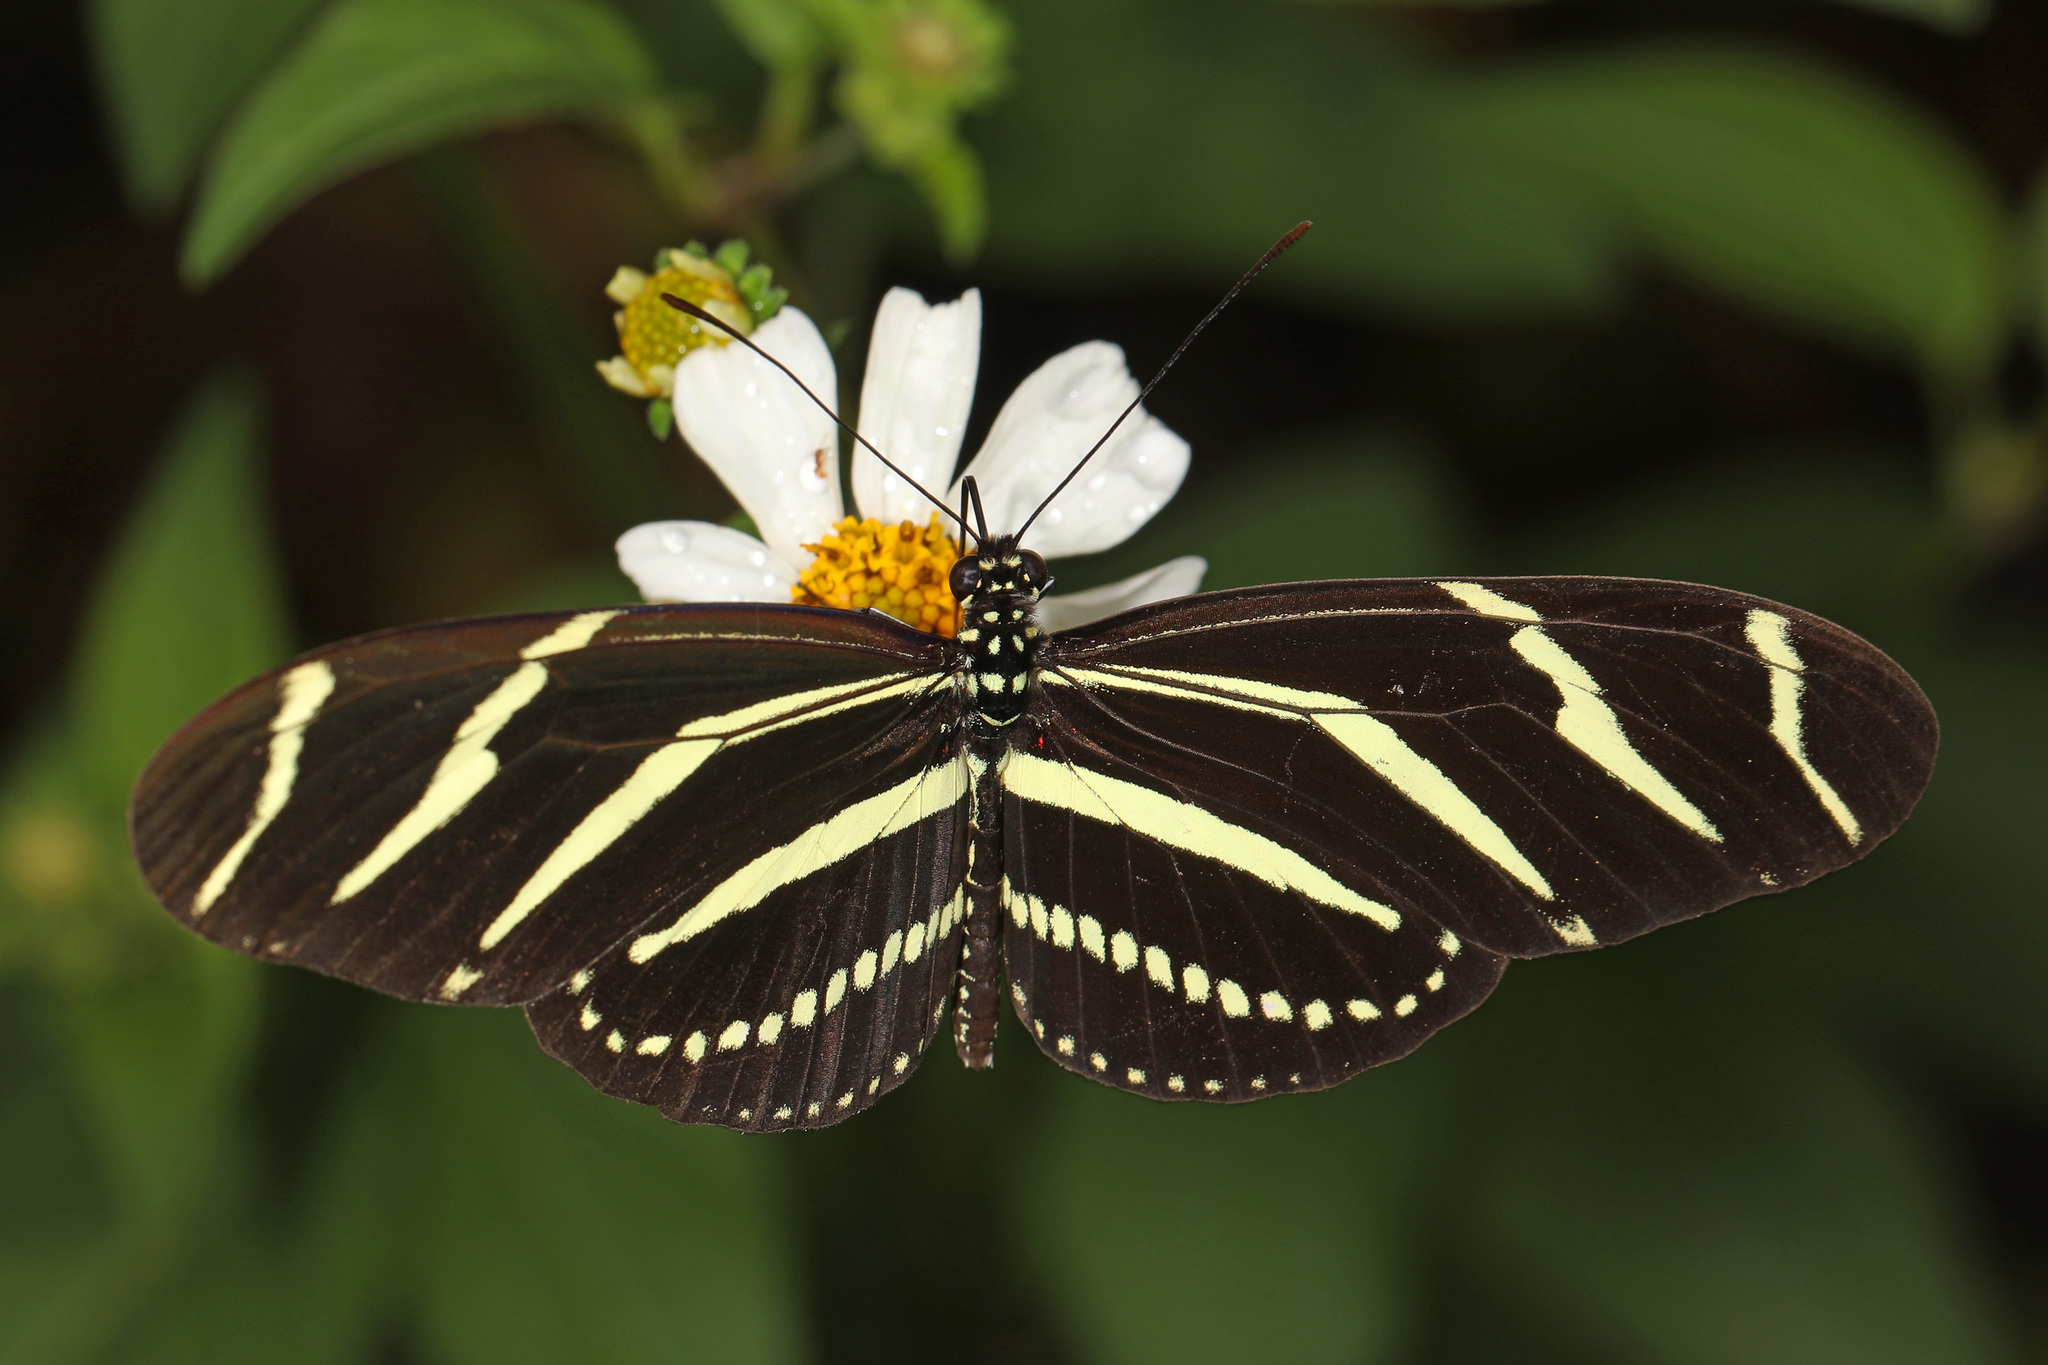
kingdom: Animalia
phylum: Arthropoda
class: Insecta
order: Lepidoptera
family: Nymphalidae
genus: Heliconius
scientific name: Heliconius charithonia
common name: Zebra long wing
